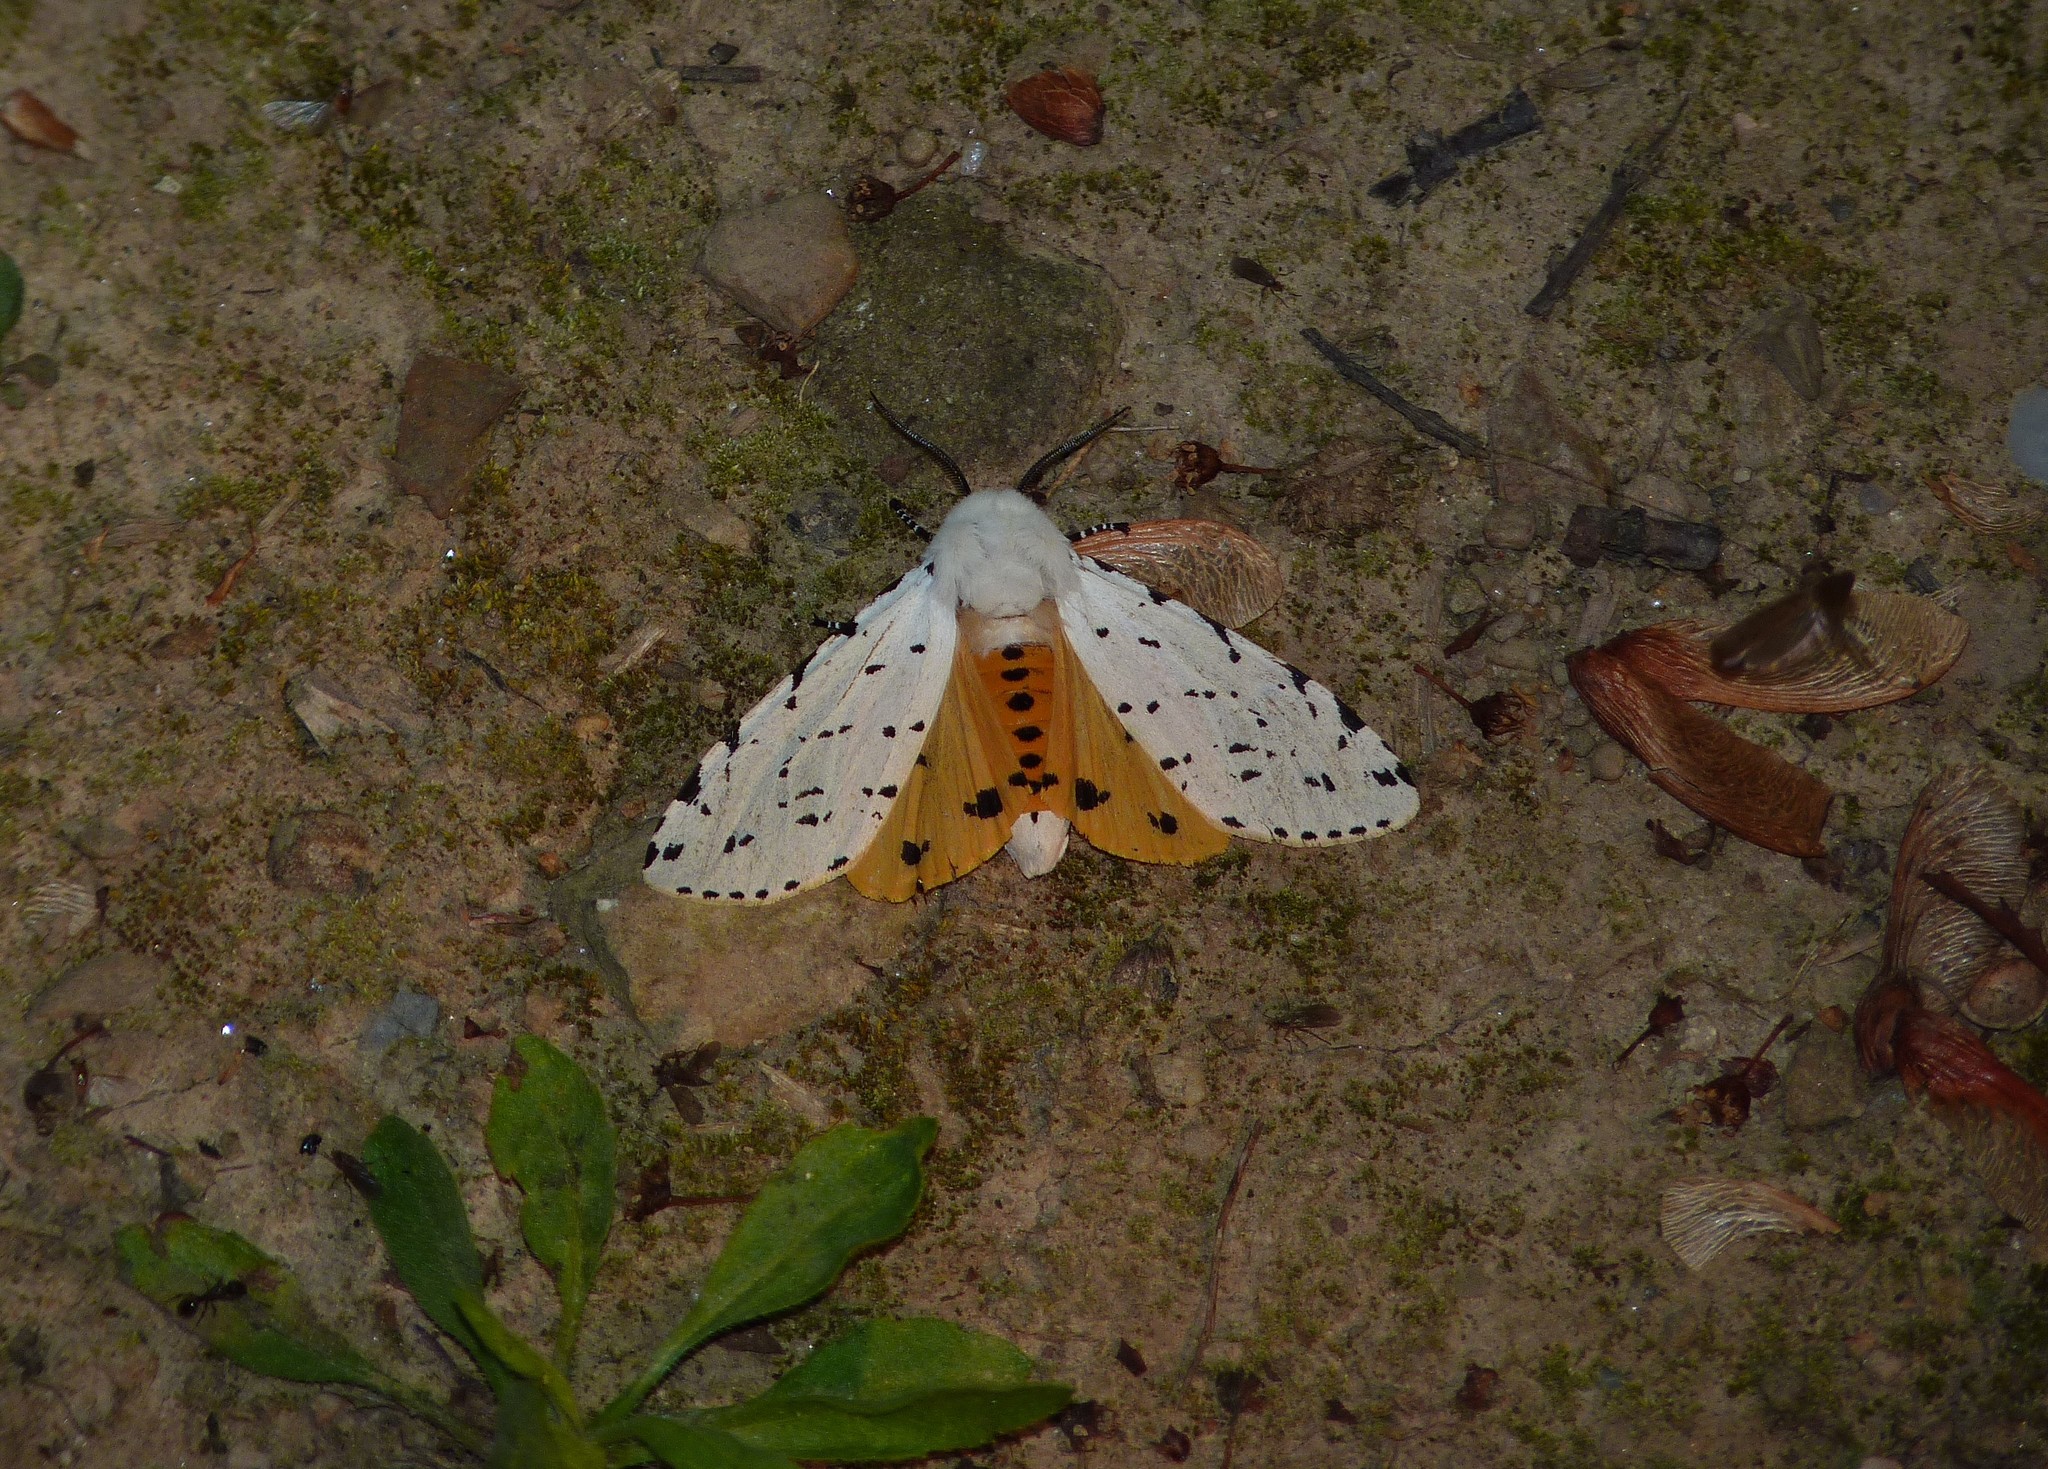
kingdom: Animalia
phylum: Arthropoda
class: Insecta
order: Lepidoptera
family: Erebidae
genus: Estigmene
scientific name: Estigmene acrea
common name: Salt marsh moth
